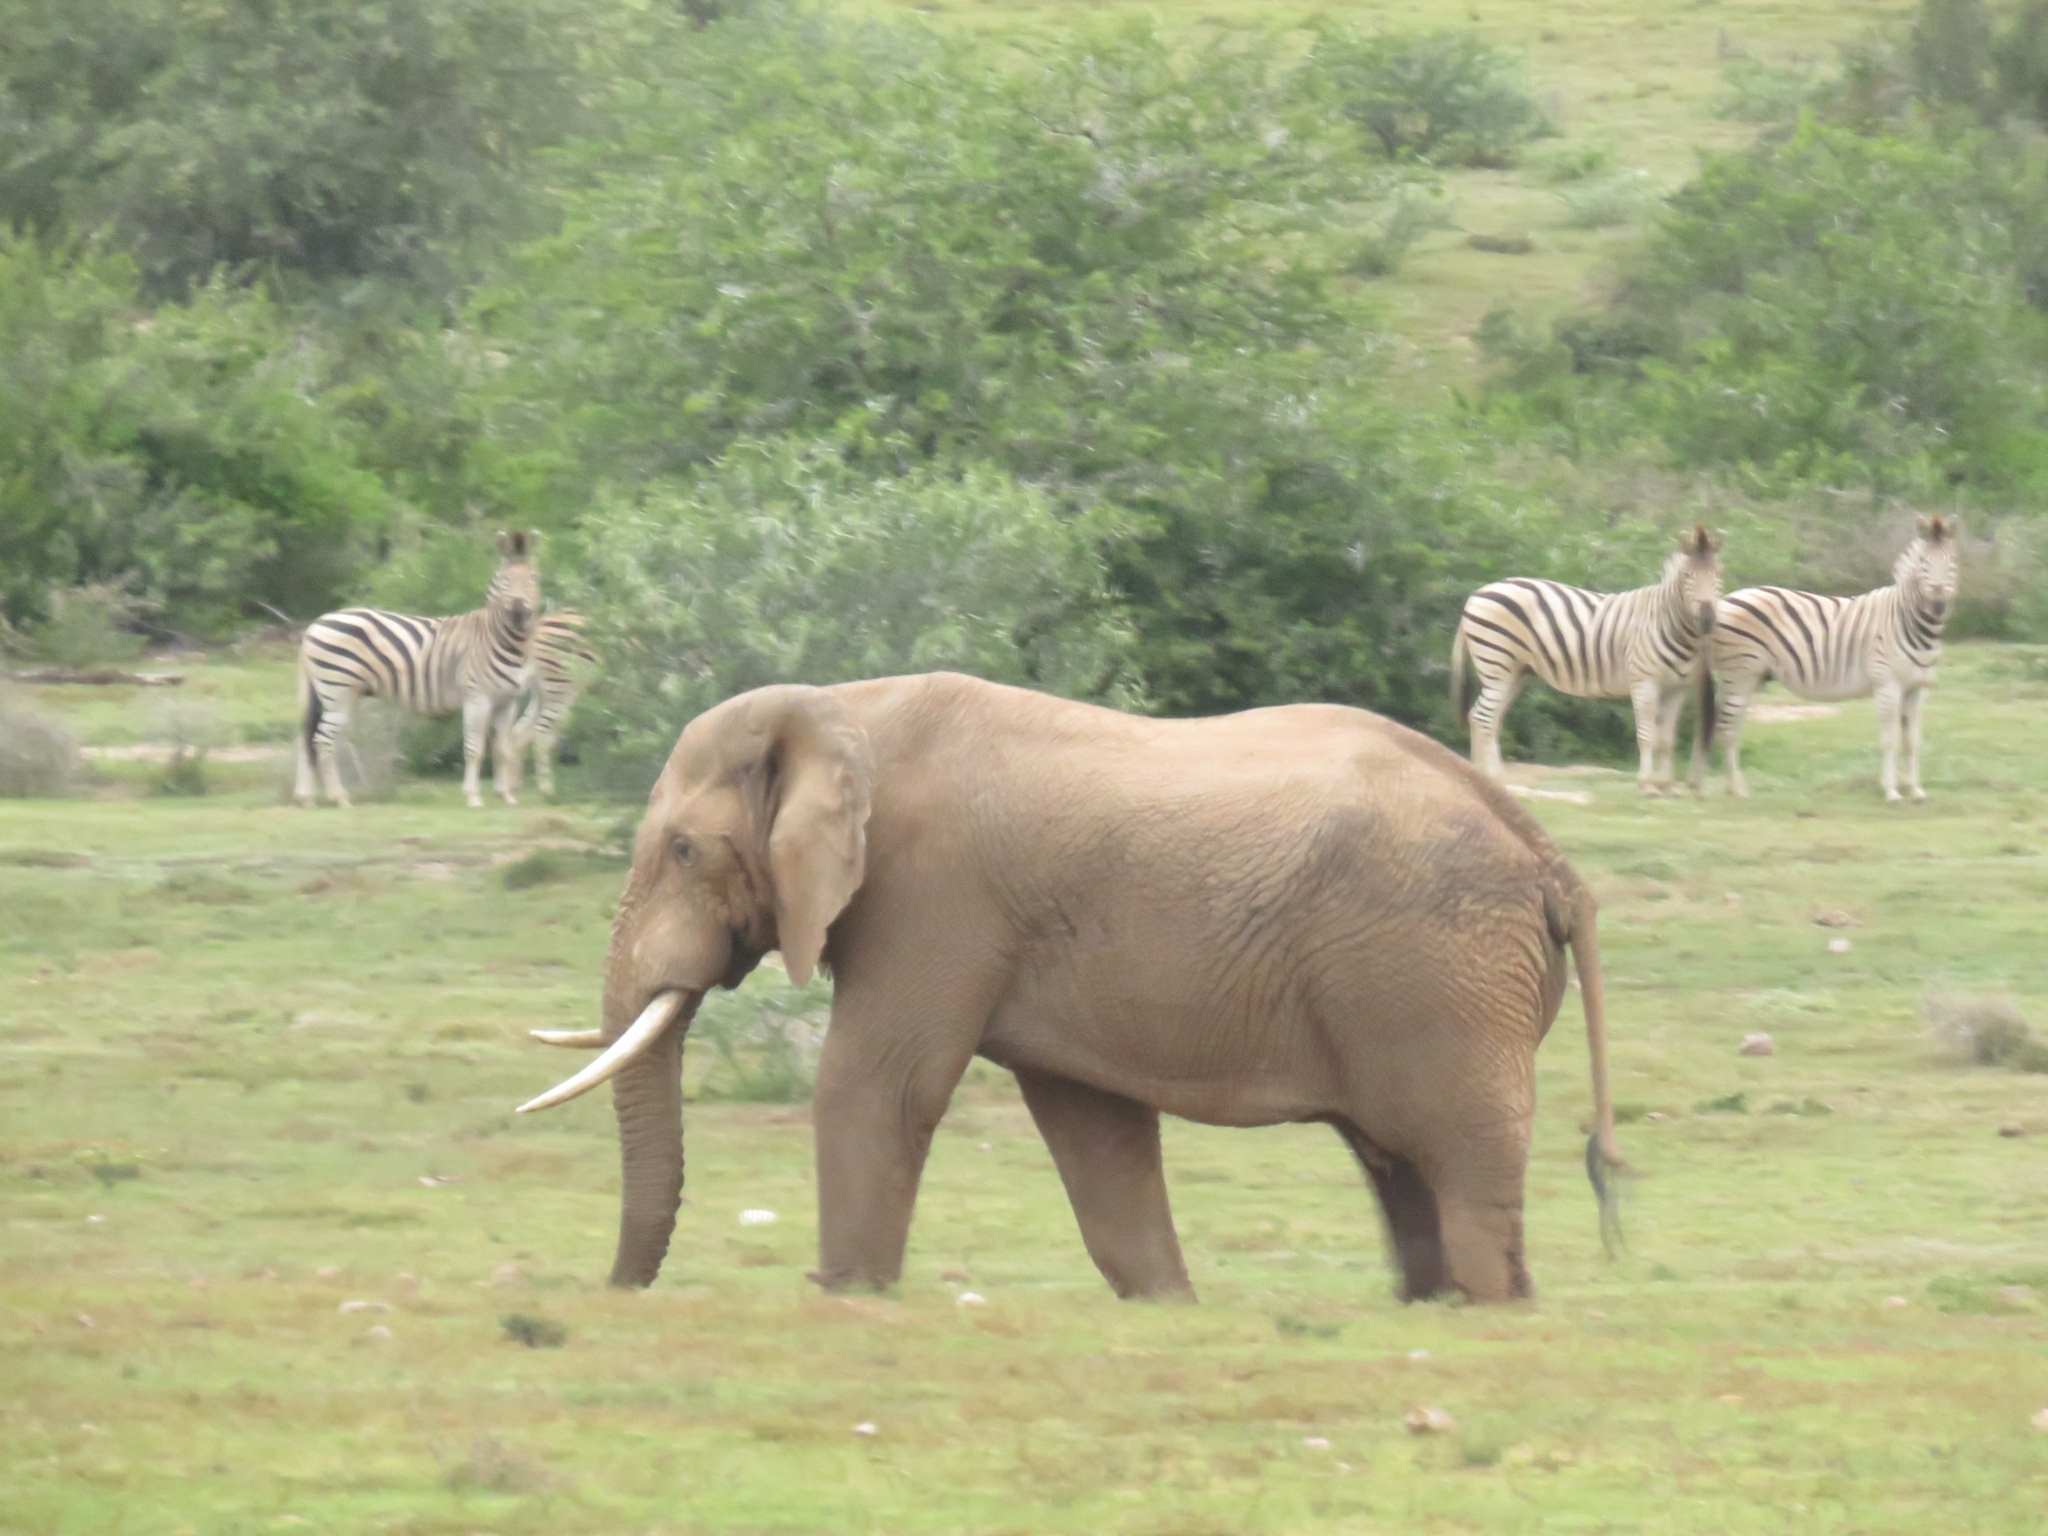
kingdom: Animalia
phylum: Chordata
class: Mammalia
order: Proboscidea
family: Elephantidae
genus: Loxodonta
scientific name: Loxodonta africana
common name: African elephant
